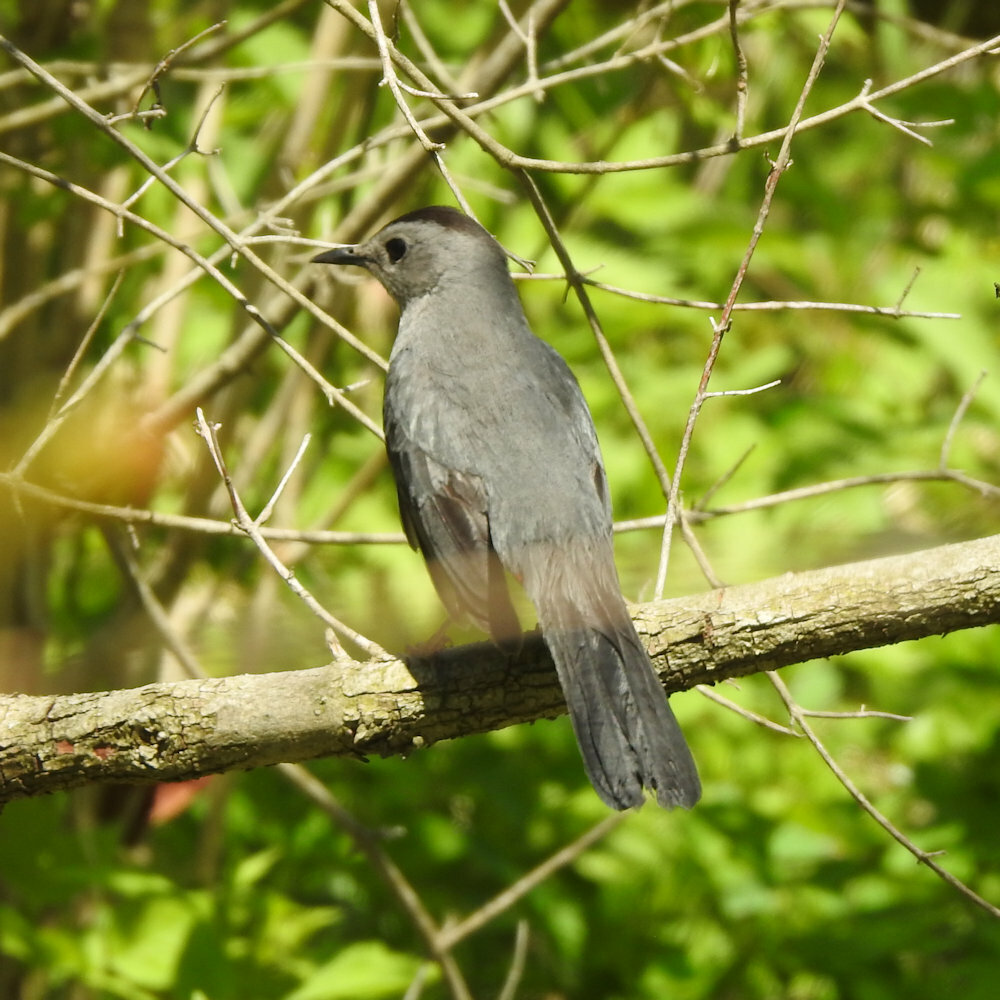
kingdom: Animalia
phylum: Chordata
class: Aves
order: Passeriformes
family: Mimidae
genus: Dumetella
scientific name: Dumetella carolinensis
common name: Gray catbird
